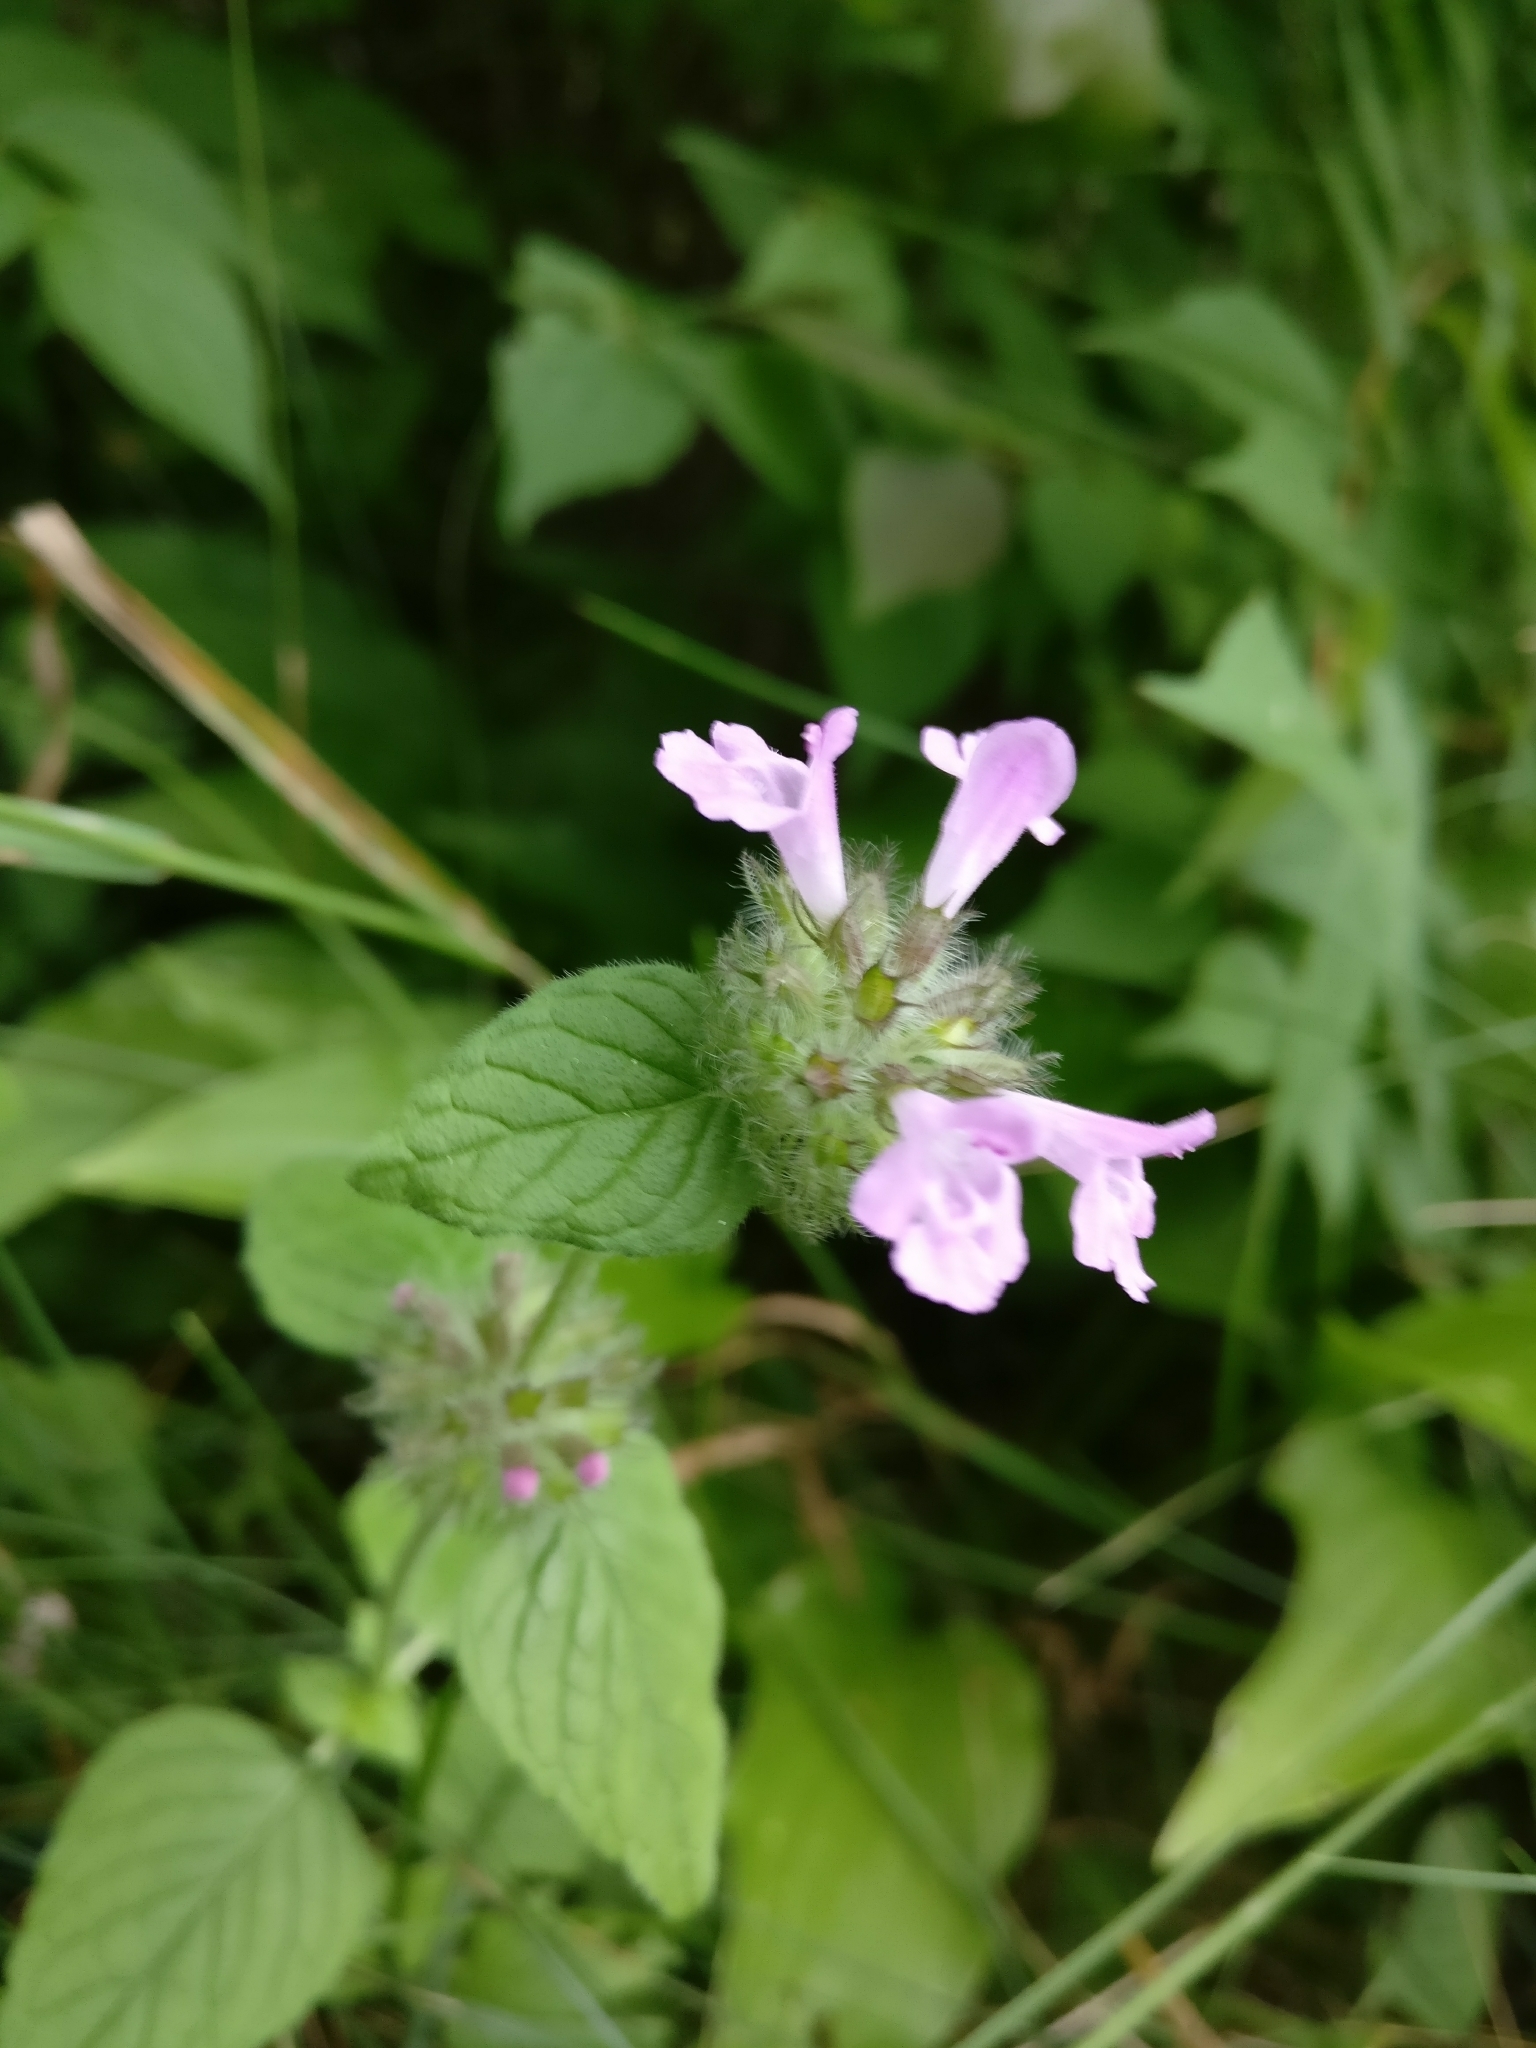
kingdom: Plantae
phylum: Tracheophyta
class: Magnoliopsida
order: Lamiales
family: Lamiaceae
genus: Clinopodium
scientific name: Clinopodium vulgare
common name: Wild basil
